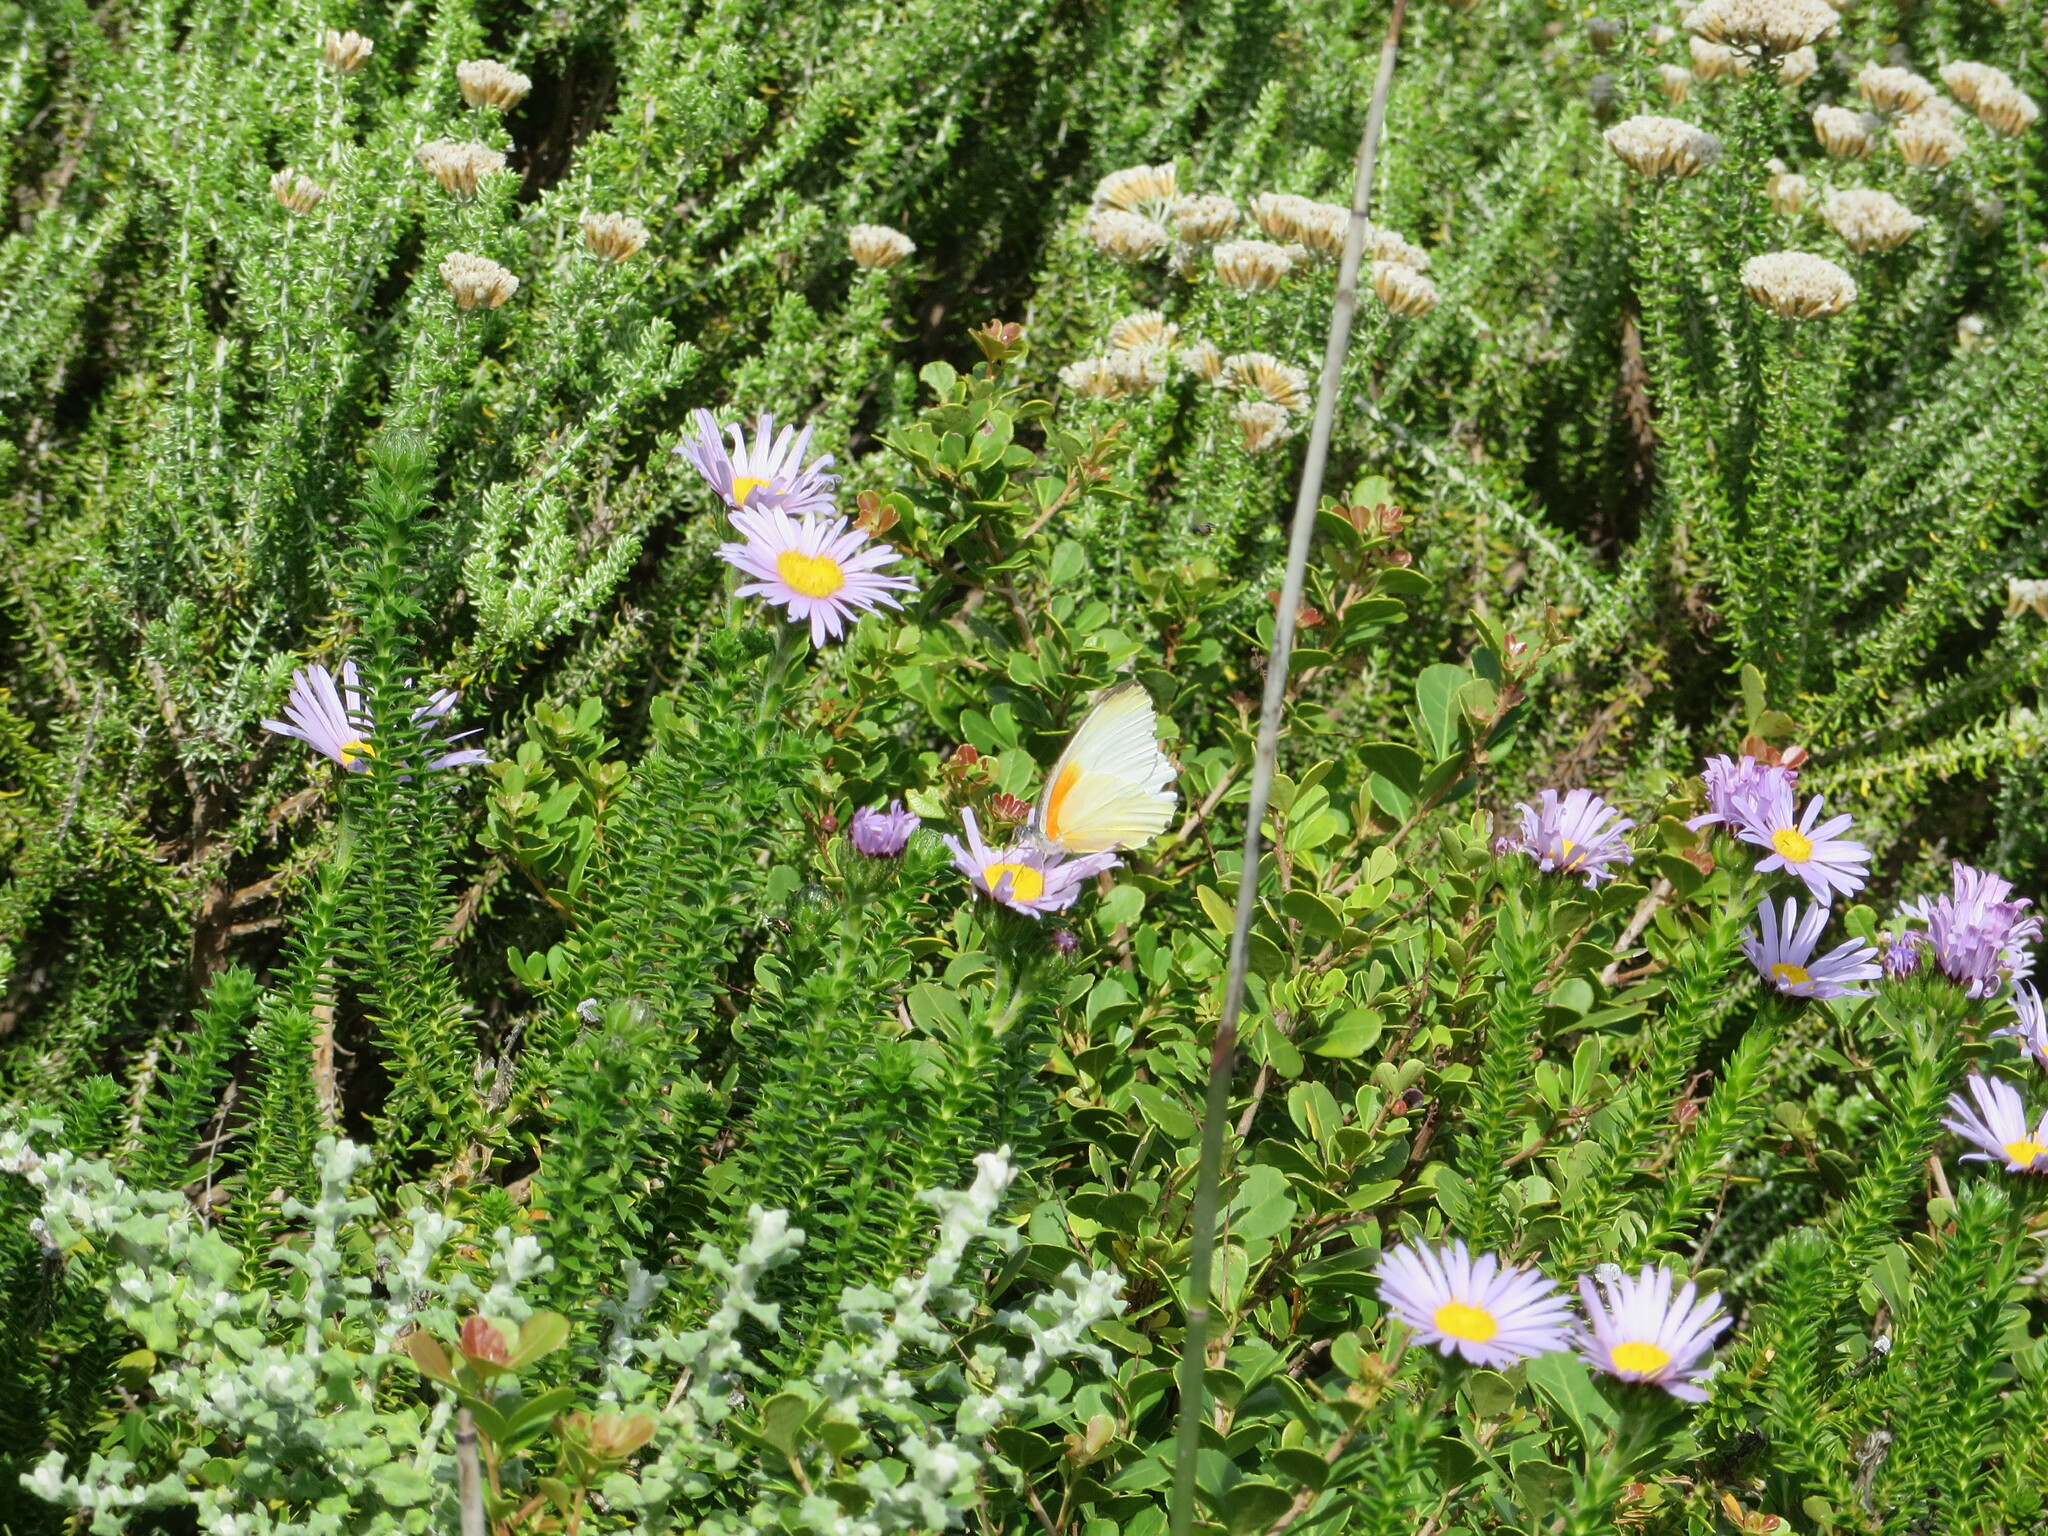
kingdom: Animalia
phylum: Arthropoda
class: Insecta
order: Lepidoptera
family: Pieridae
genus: Mylothris
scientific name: Mylothris agathina
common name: Eastern dotted border
